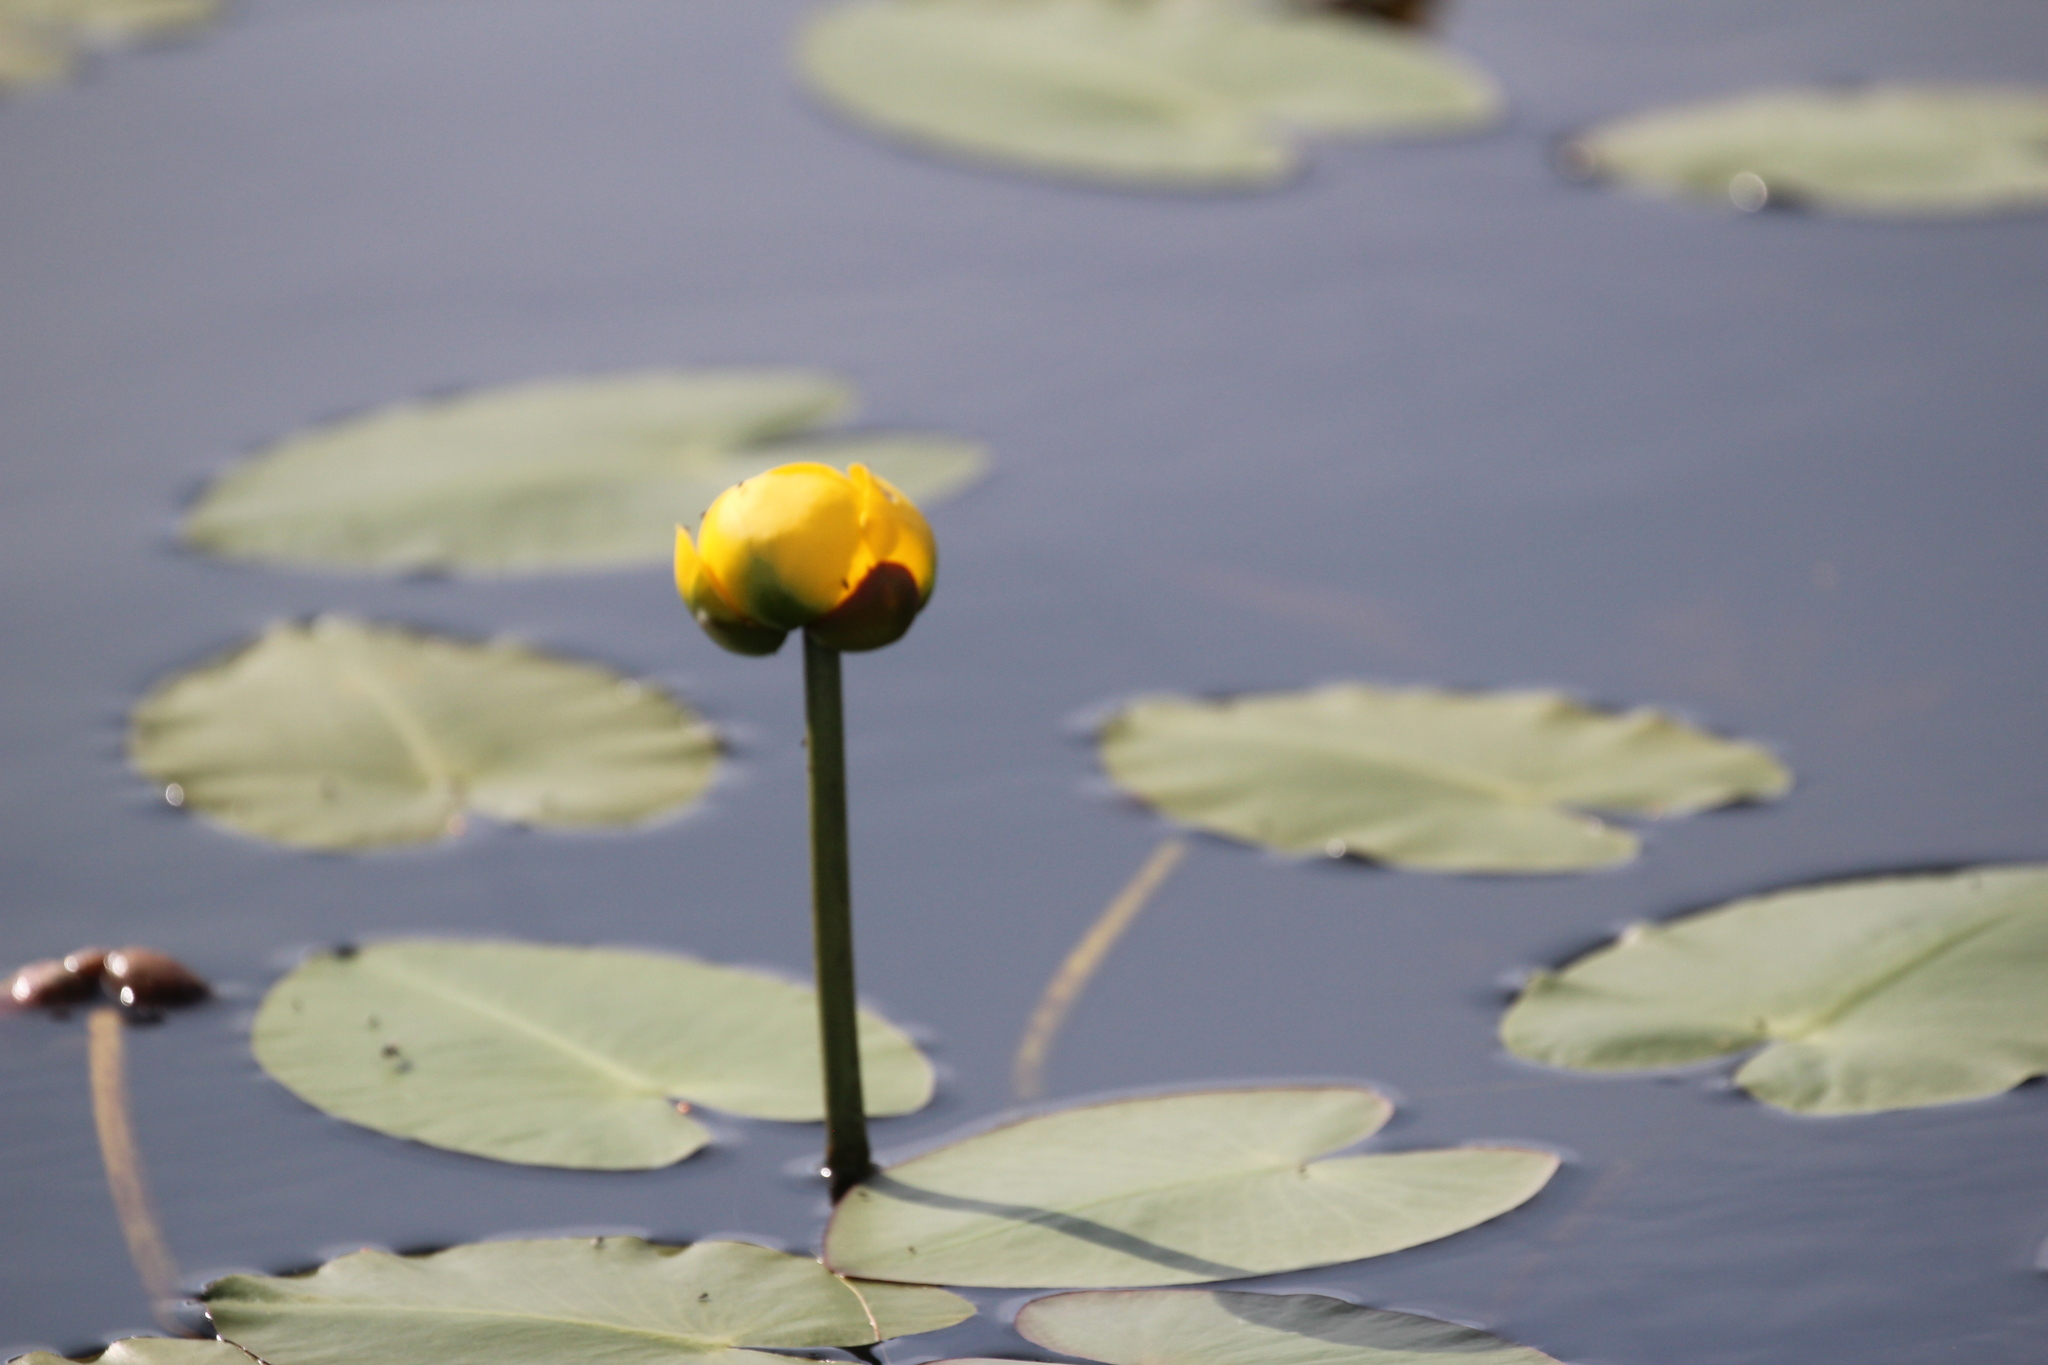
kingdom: Plantae
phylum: Tracheophyta
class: Magnoliopsida
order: Nymphaeales
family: Nymphaeaceae
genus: Nuphar
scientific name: Nuphar variegata
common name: Beaver-root
